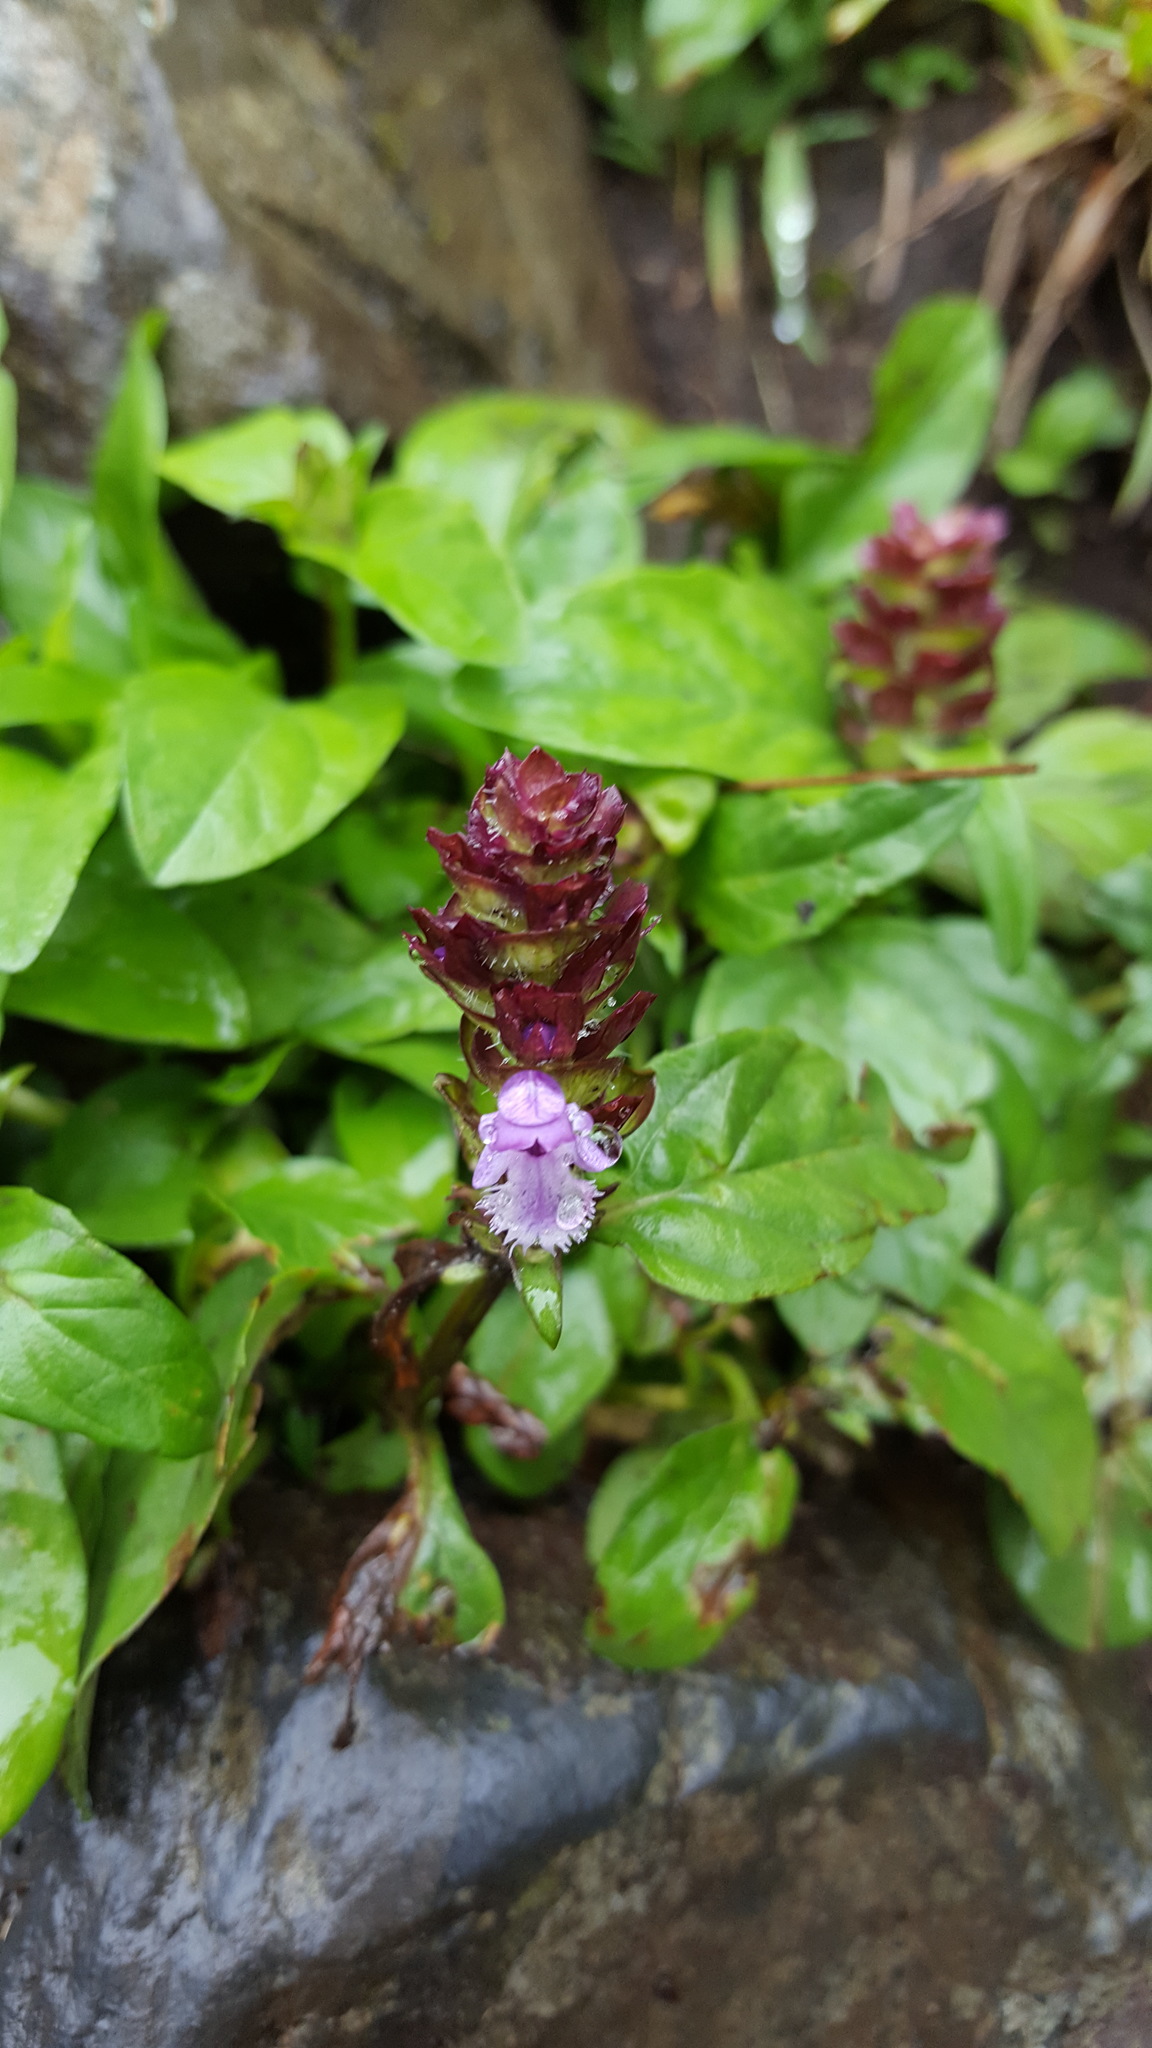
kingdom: Plantae
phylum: Tracheophyta
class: Magnoliopsida
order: Lamiales
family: Lamiaceae
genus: Prunella
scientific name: Prunella vulgaris
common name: Heal-all
